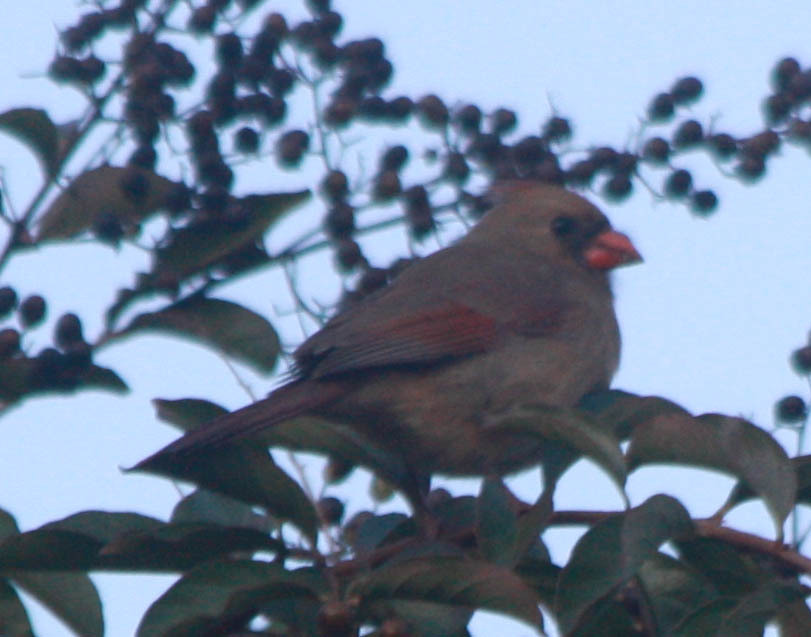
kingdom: Animalia
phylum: Chordata
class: Aves
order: Passeriformes
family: Cardinalidae
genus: Cardinalis
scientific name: Cardinalis cardinalis
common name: Northern cardinal
